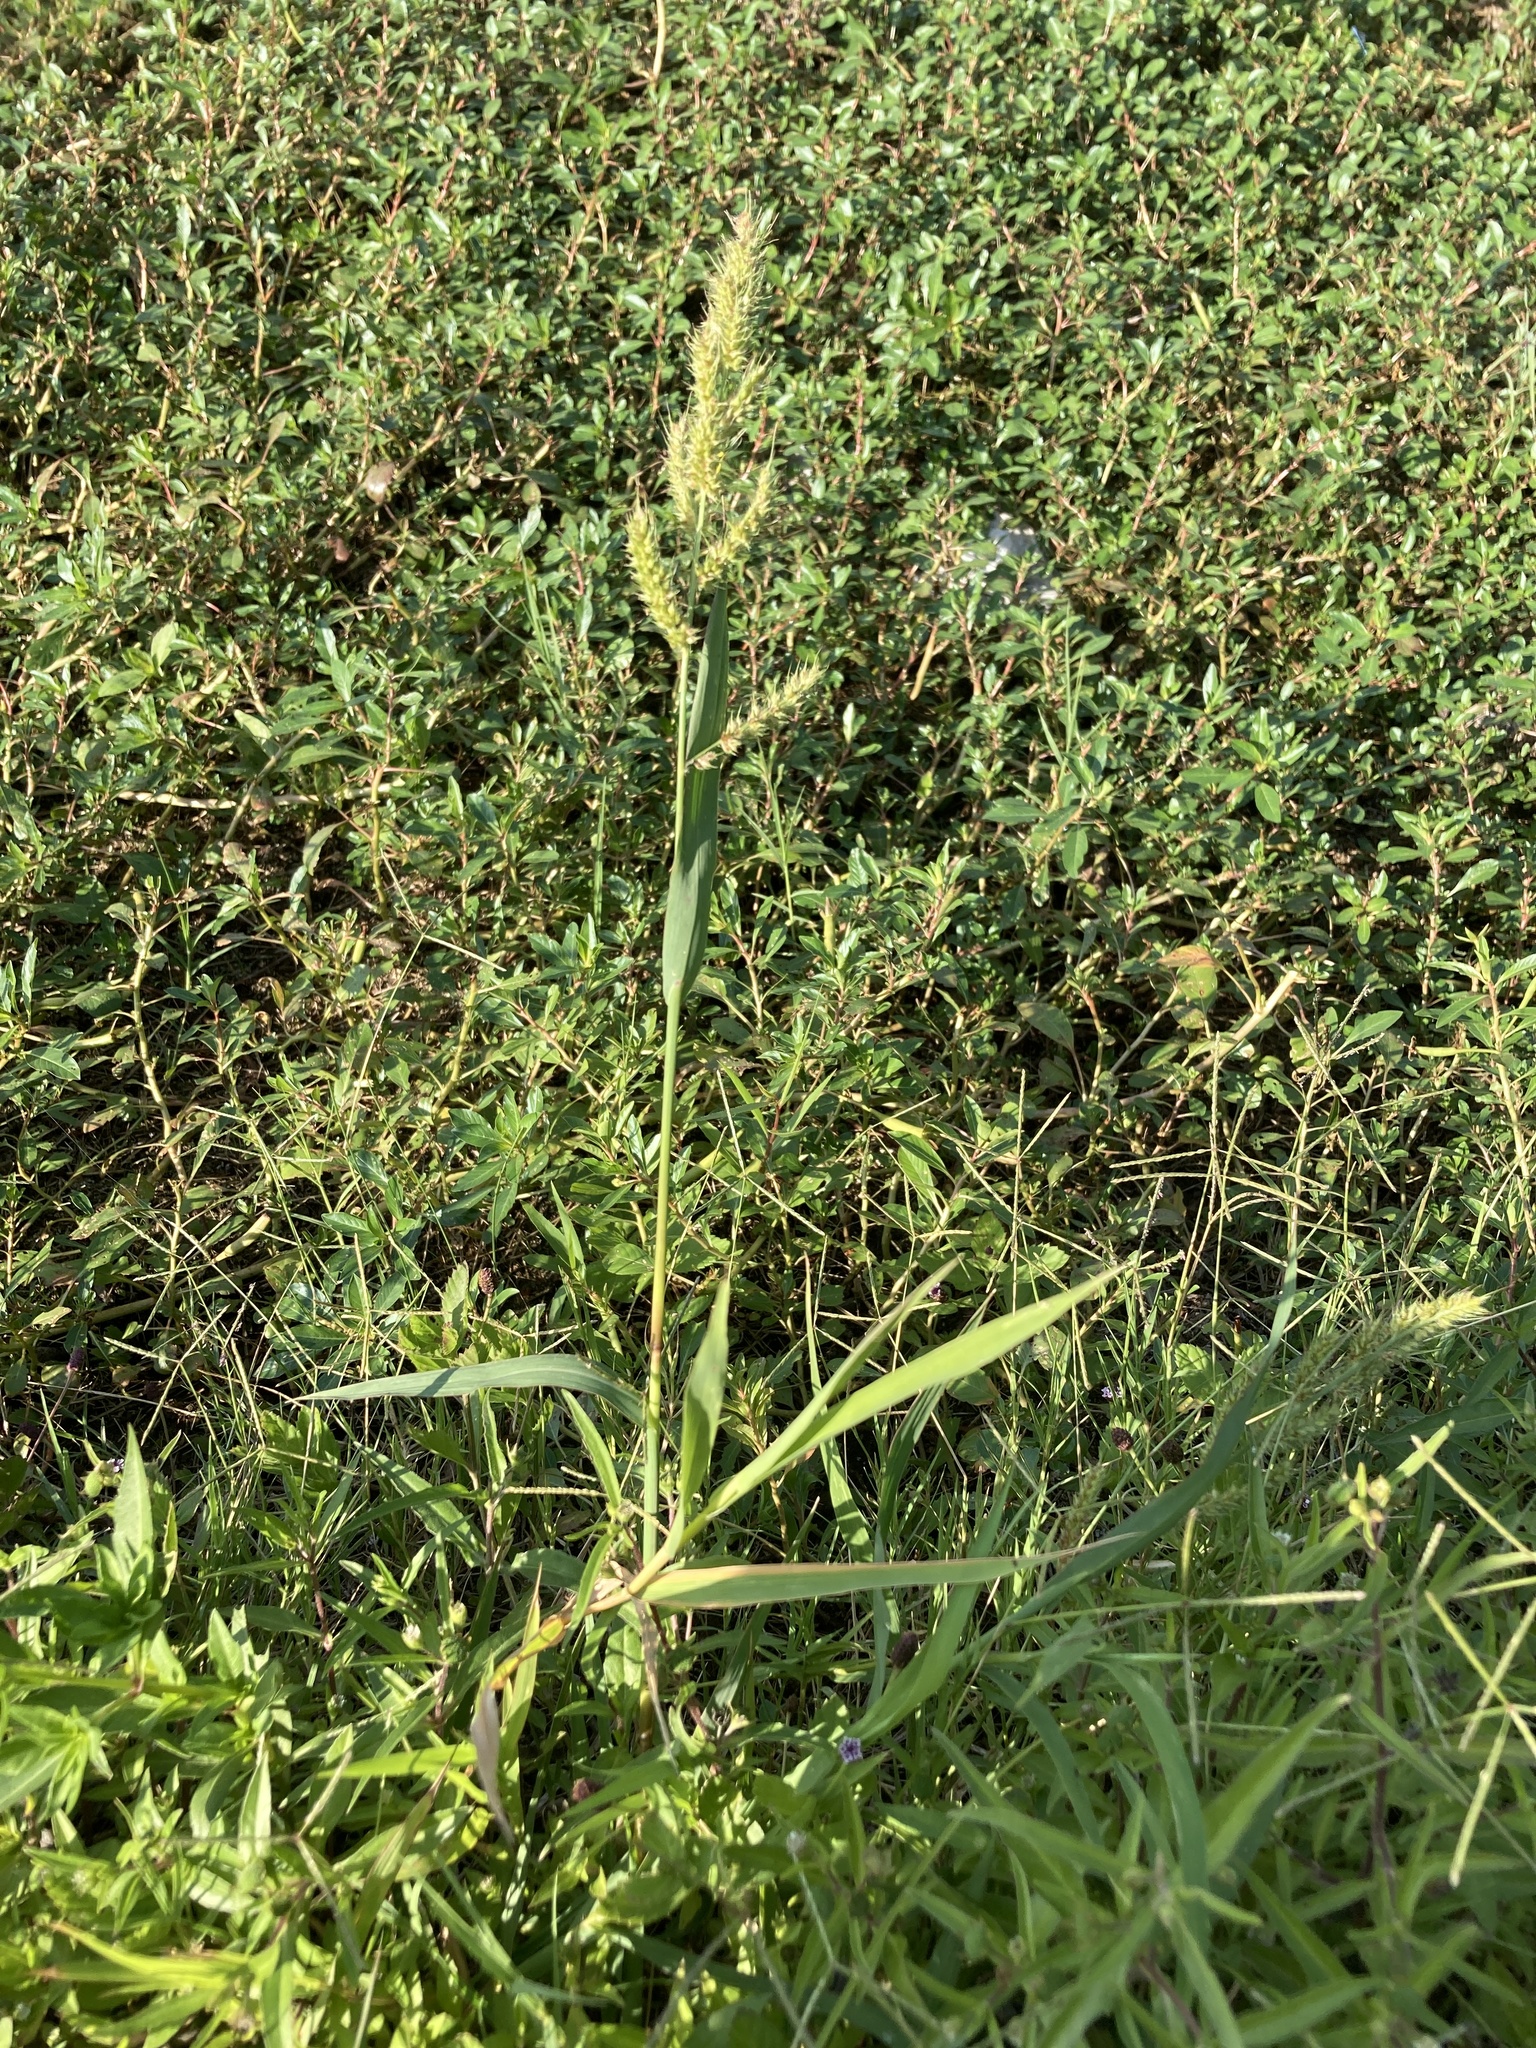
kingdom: Plantae
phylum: Tracheophyta
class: Liliopsida
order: Poales
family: Poaceae
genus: Echinochloa
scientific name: Echinochloa crus-galli
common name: Cockspur
